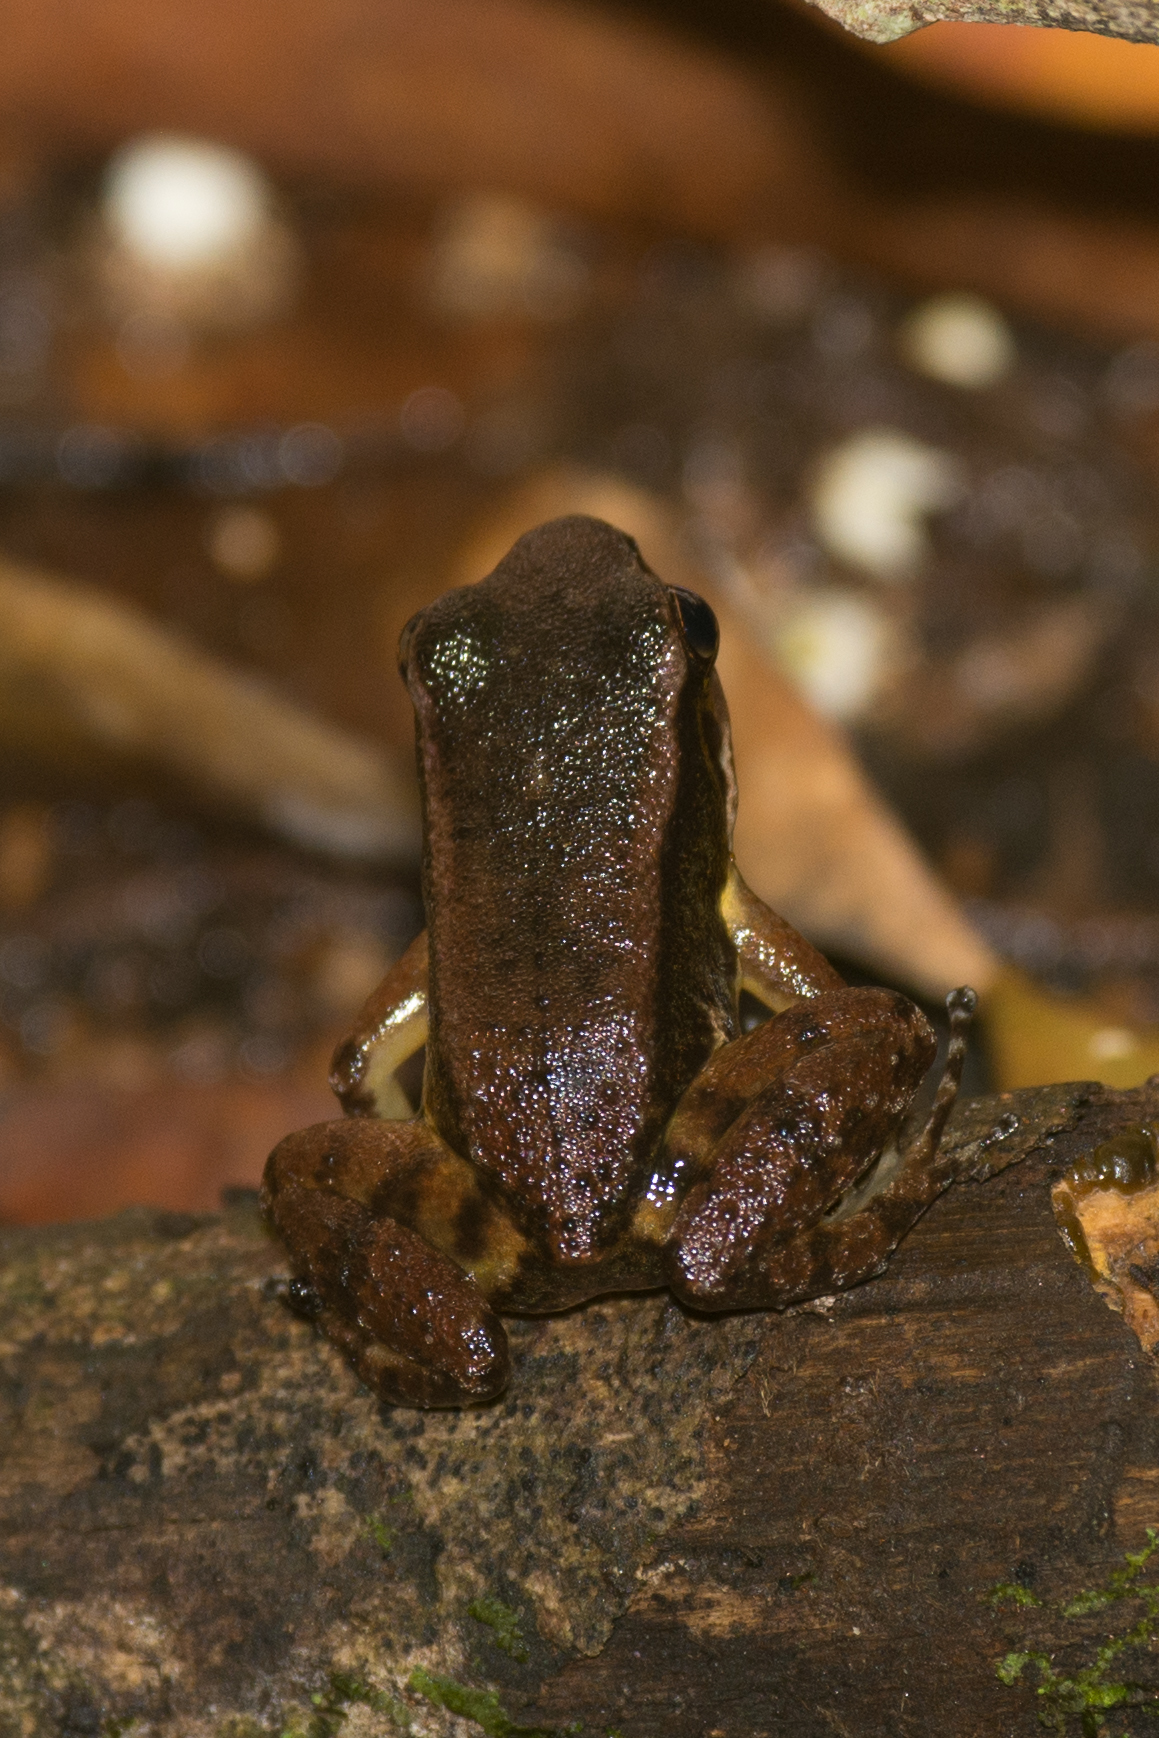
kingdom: Animalia
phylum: Chordata
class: Amphibia
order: Anura
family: Aromobatidae
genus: Mannophryne
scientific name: Mannophryne trinitatis
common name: Trinidad poison frog
